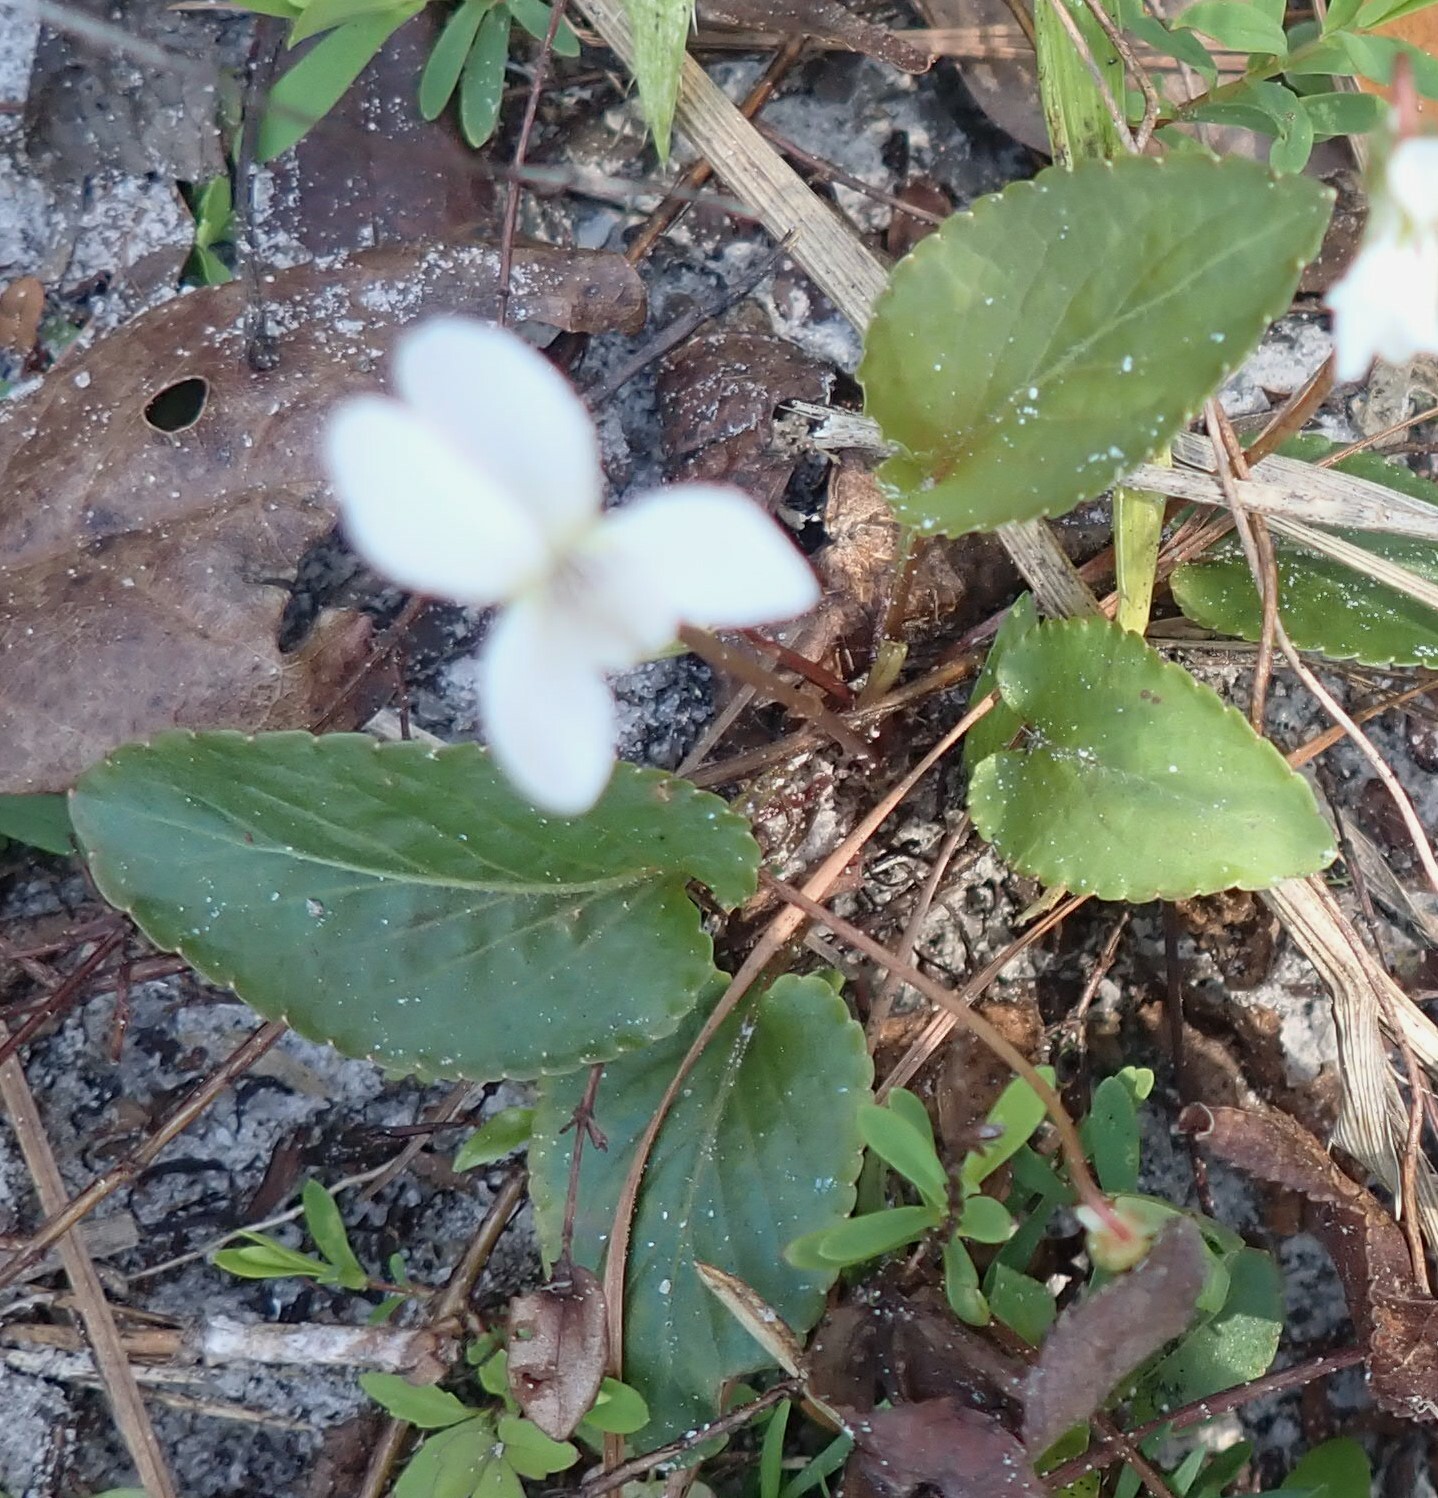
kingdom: Plantae
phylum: Tracheophyta
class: Magnoliopsida
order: Malpighiales
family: Violaceae
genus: Viola
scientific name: Viola primulifolia
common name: Primrose-leaf violet
